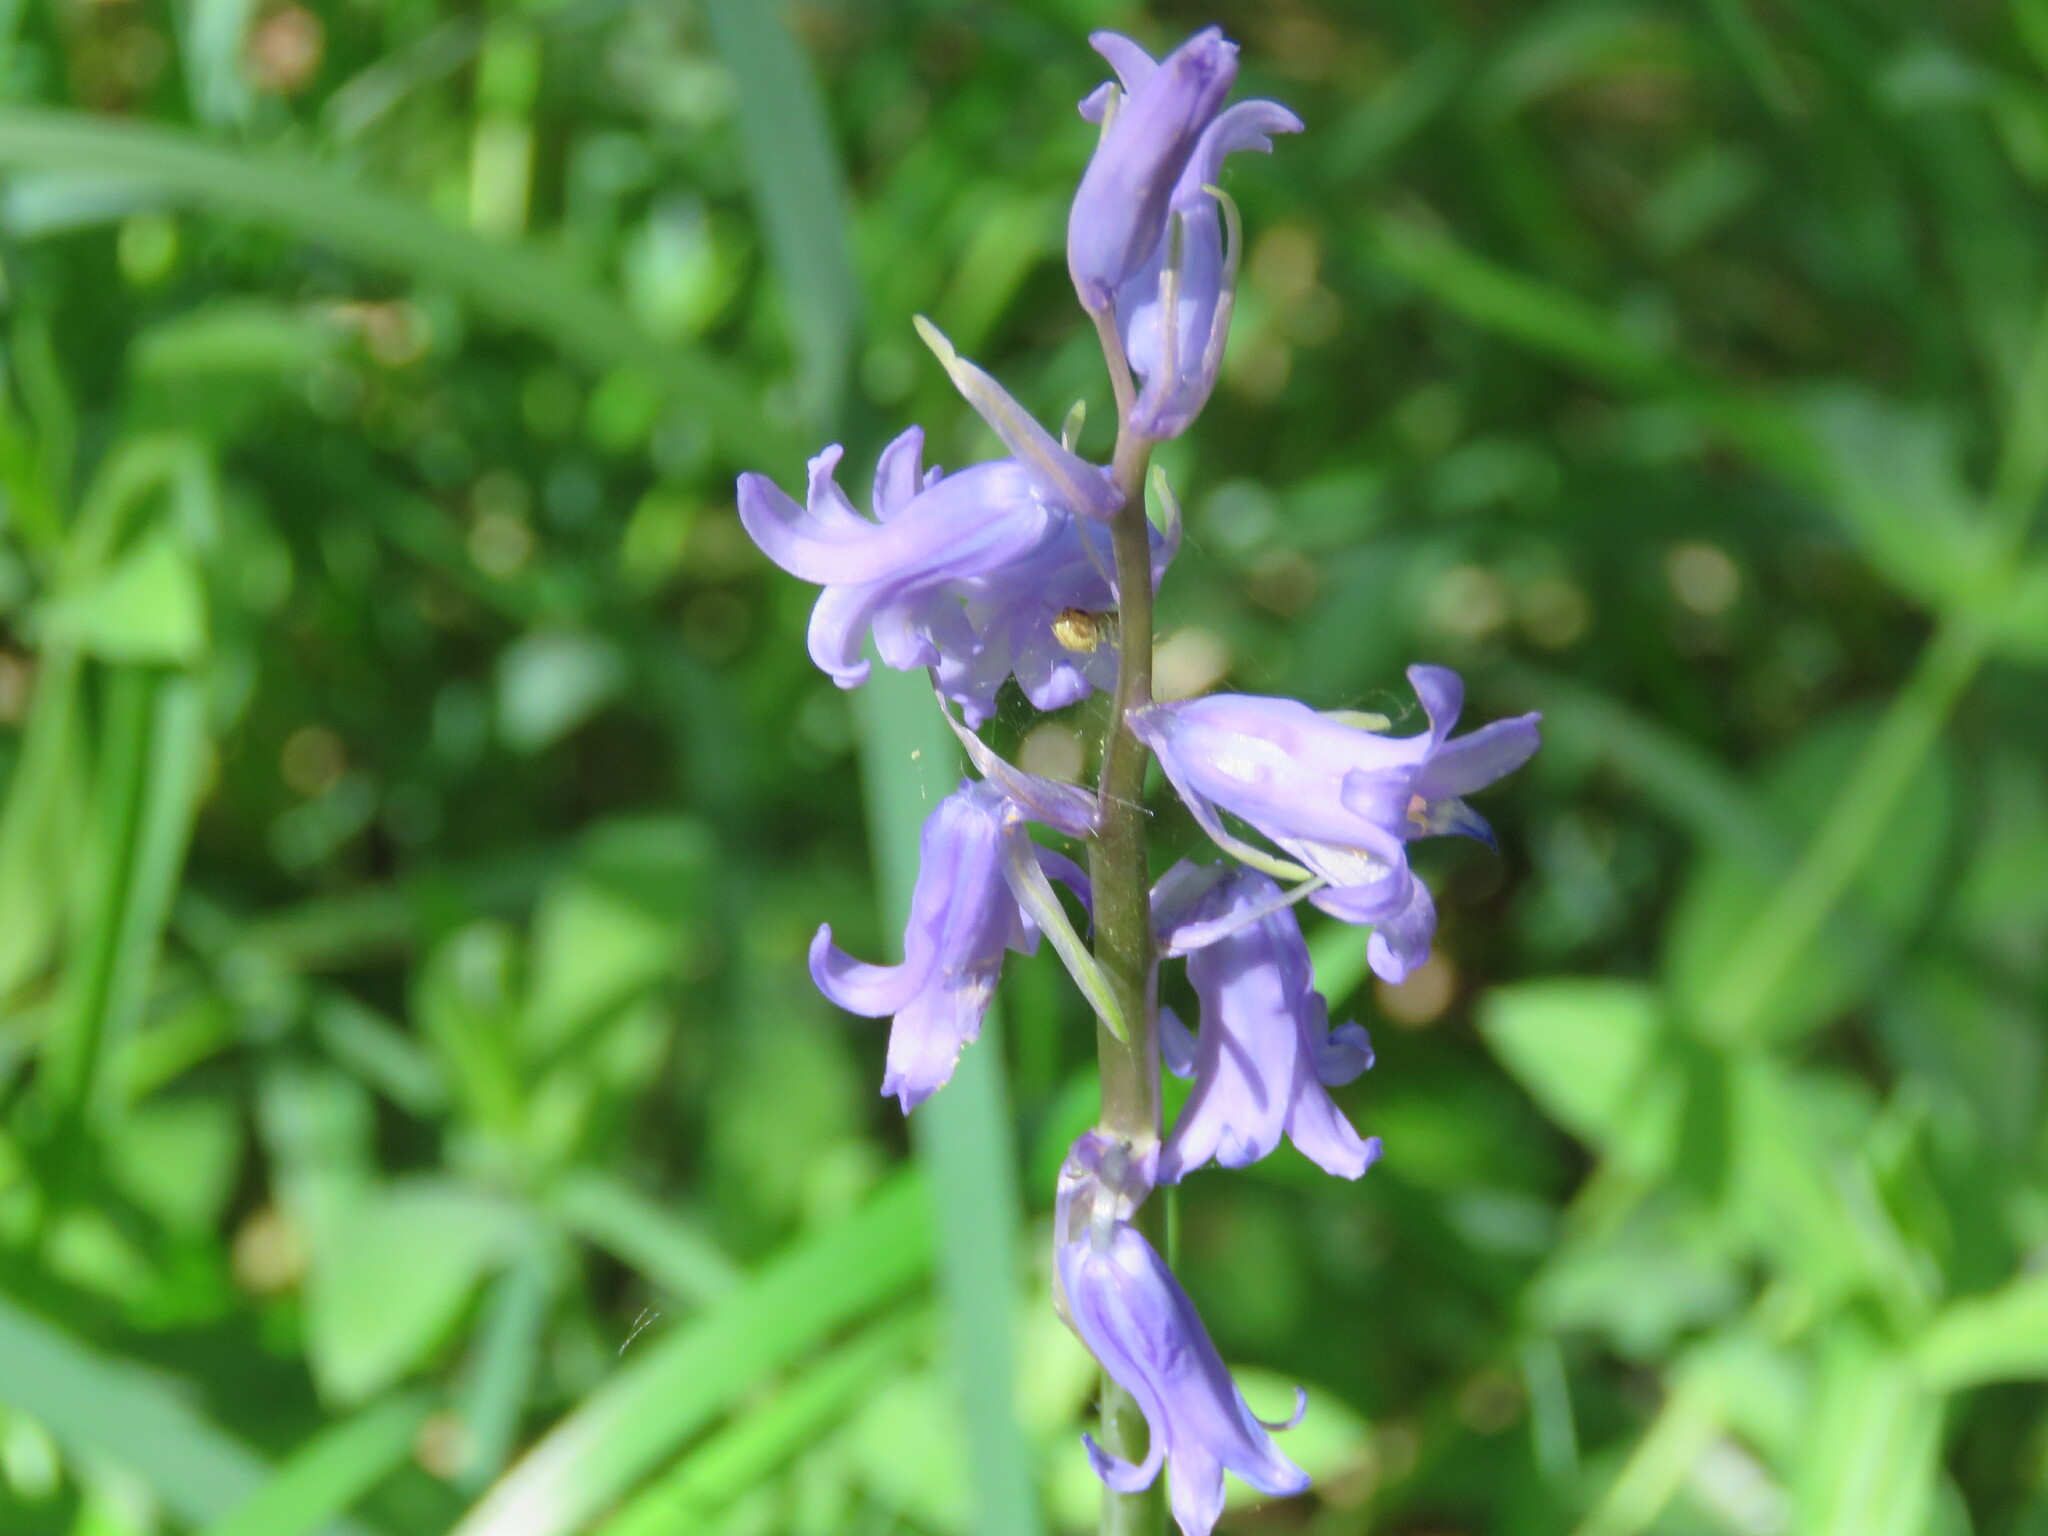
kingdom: Plantae
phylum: Tracheophyta
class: Liliopsida
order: Asparagales
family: Asparagaceae
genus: Hyacinthoides
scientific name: Hyacinthoides non-scripta
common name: Bluebell
